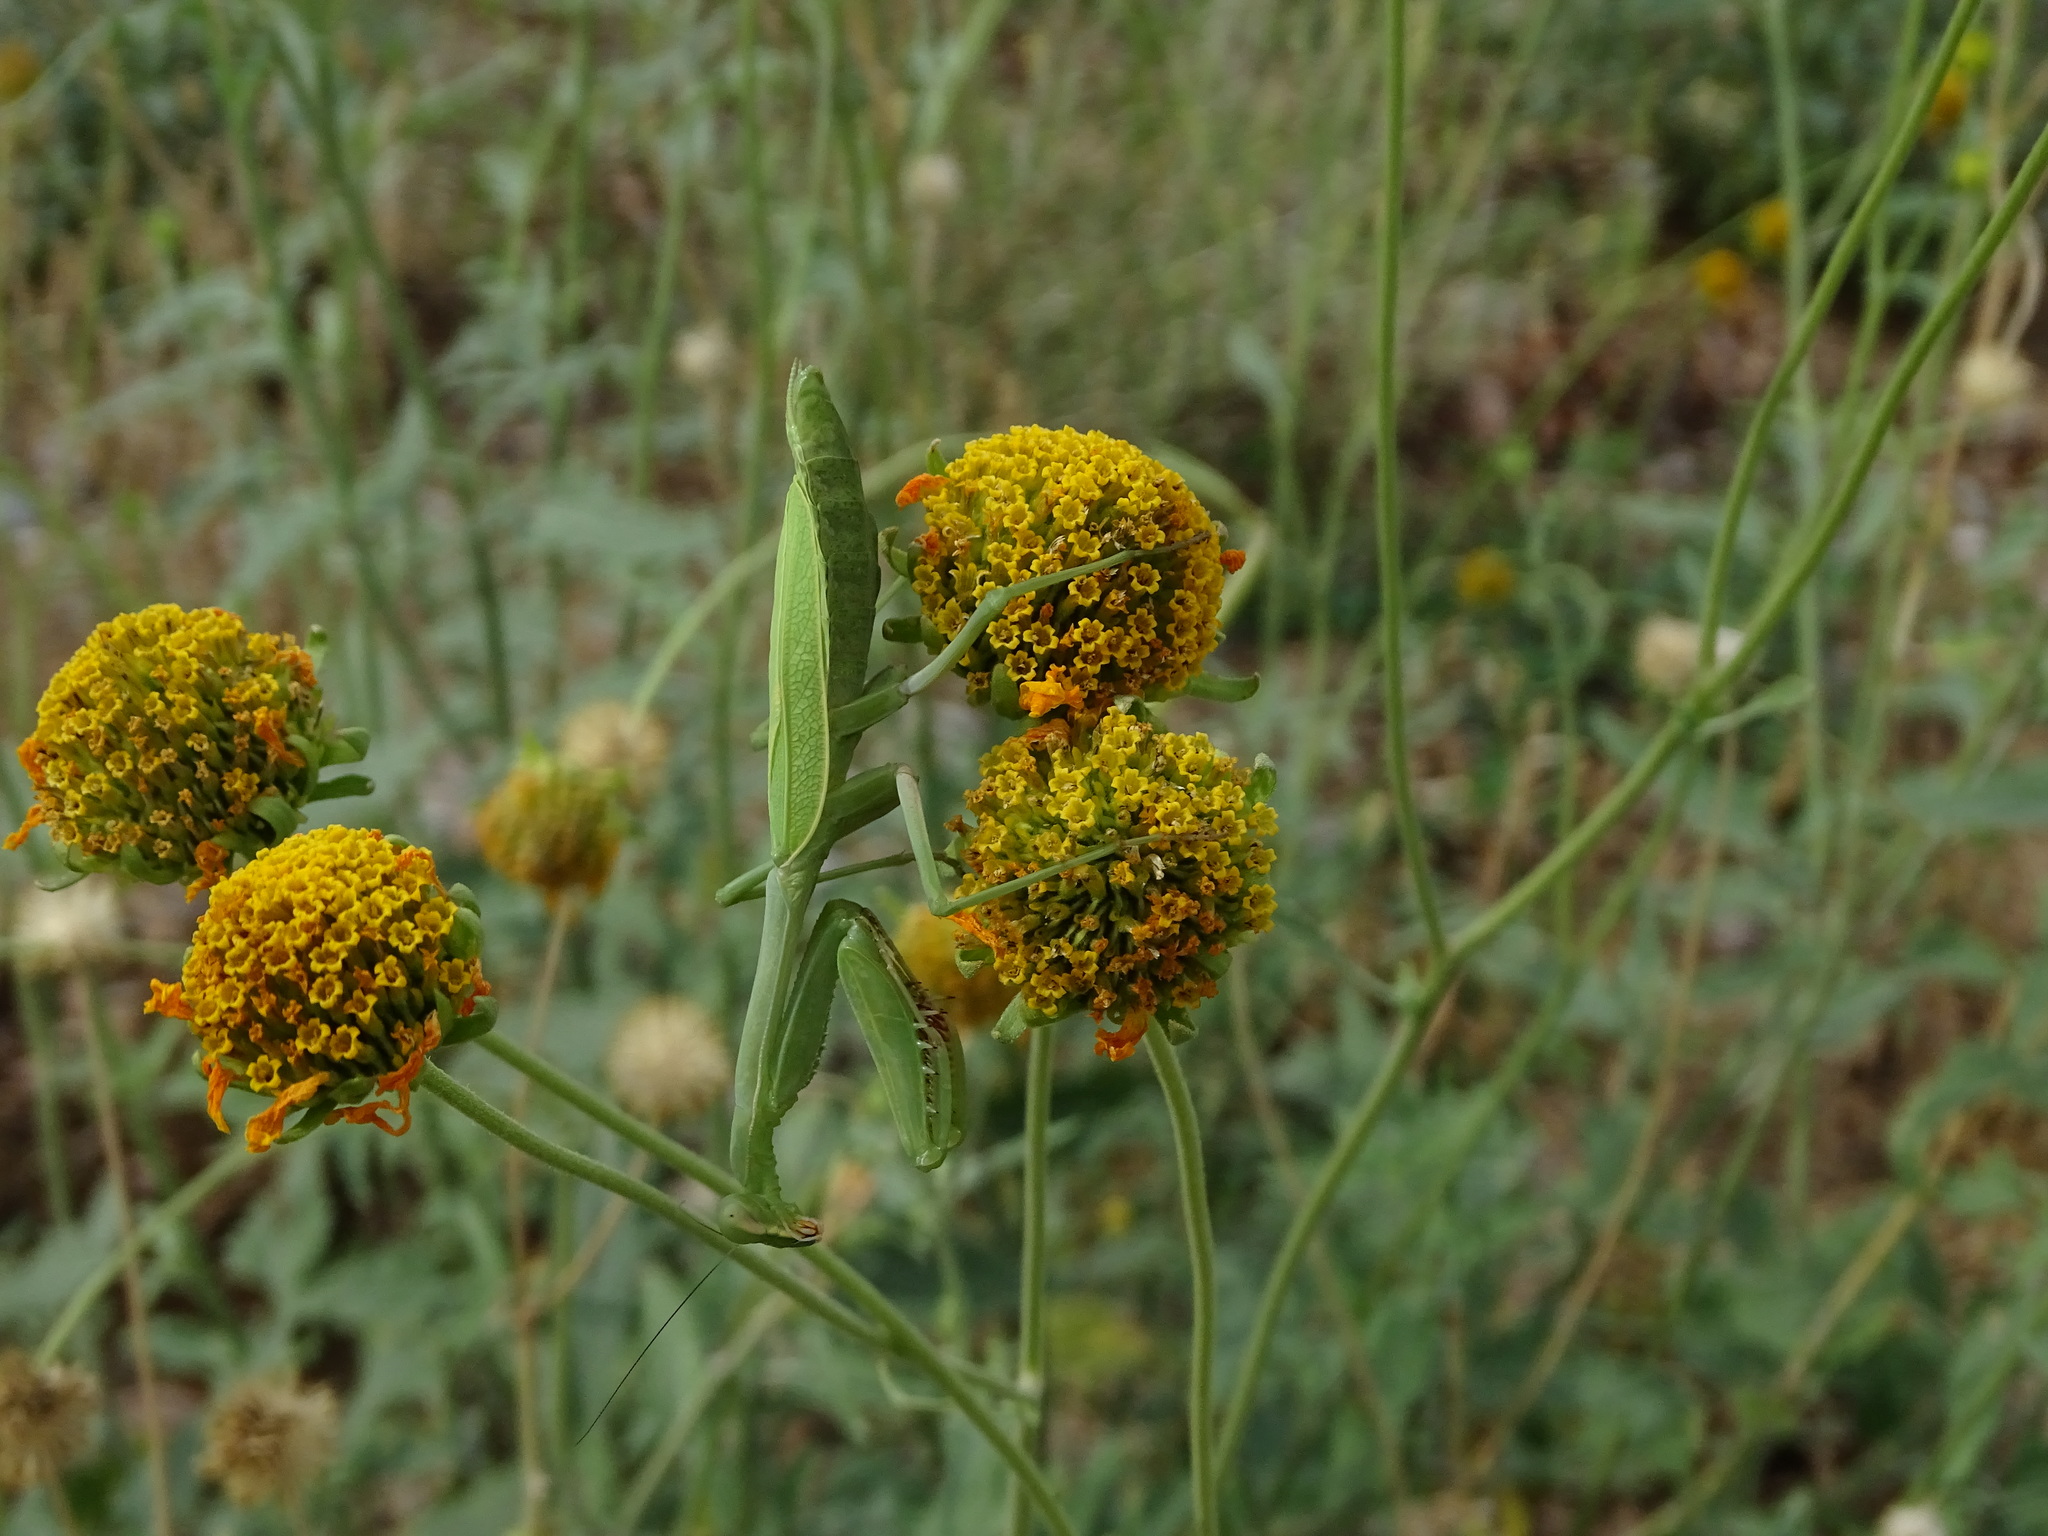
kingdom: Animalia
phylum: Arthropoda
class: Insecta
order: Mantodea
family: Mantidae
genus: Stagmomantis
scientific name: Stagmomantis limbata
